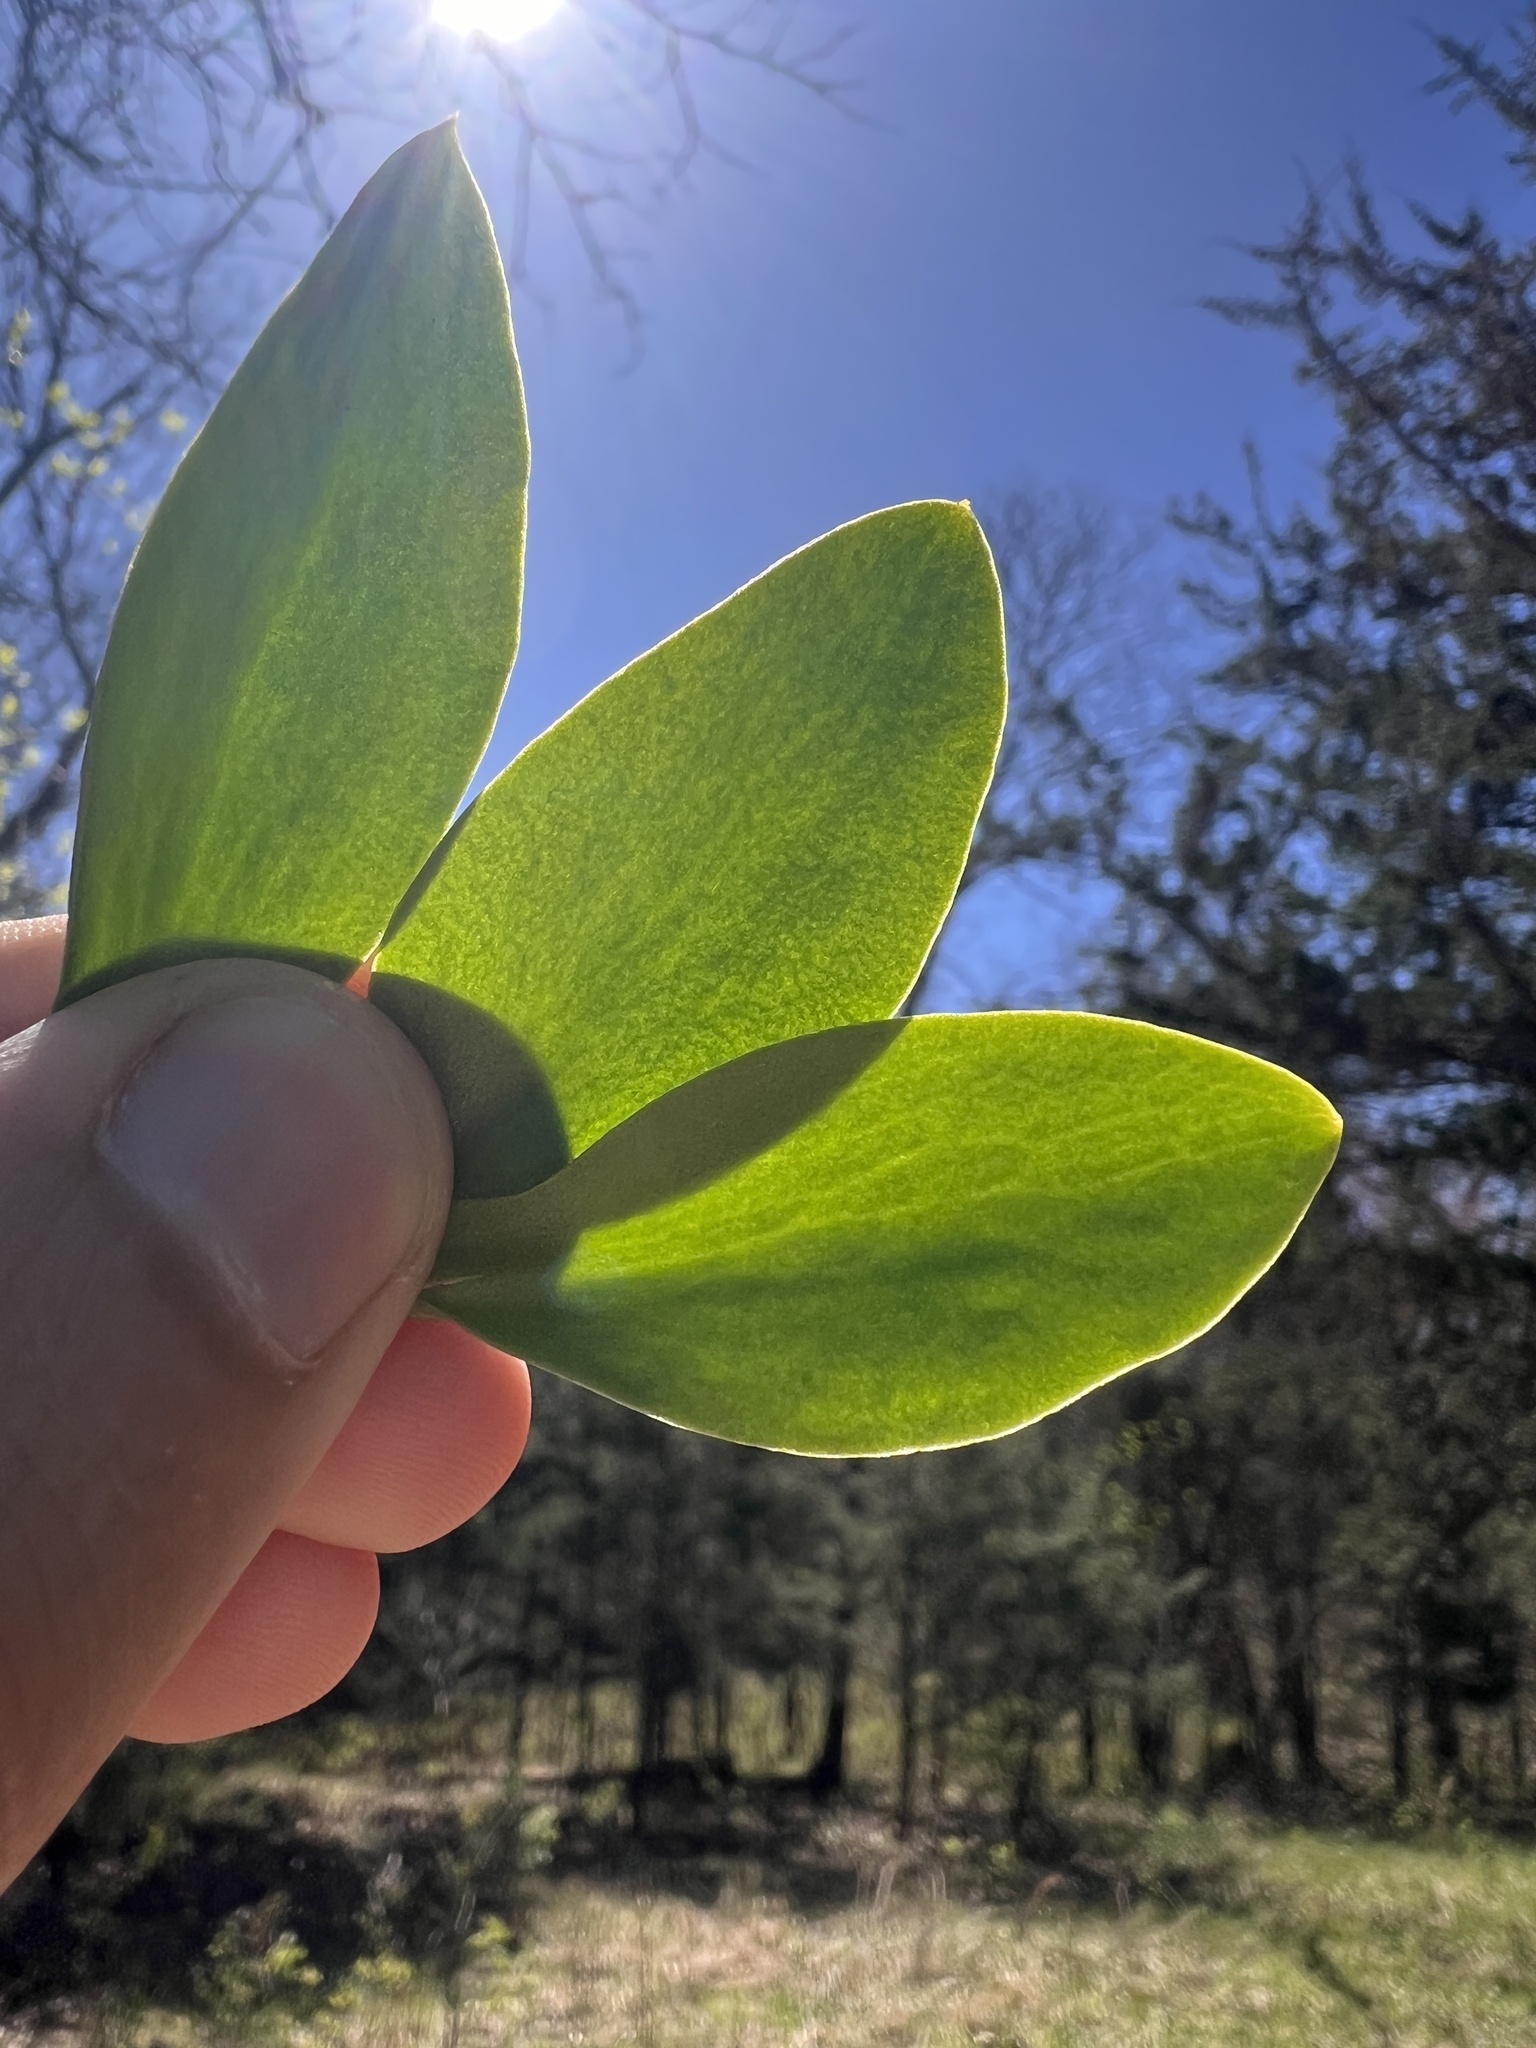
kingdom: Plantae
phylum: Tracheophyta
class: Polypodiopsida
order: Ophioglossales
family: Ophioglossaceae
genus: Ophioglossum
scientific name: Ophioglossum engelmannii
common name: Limestone adder's-tongue
